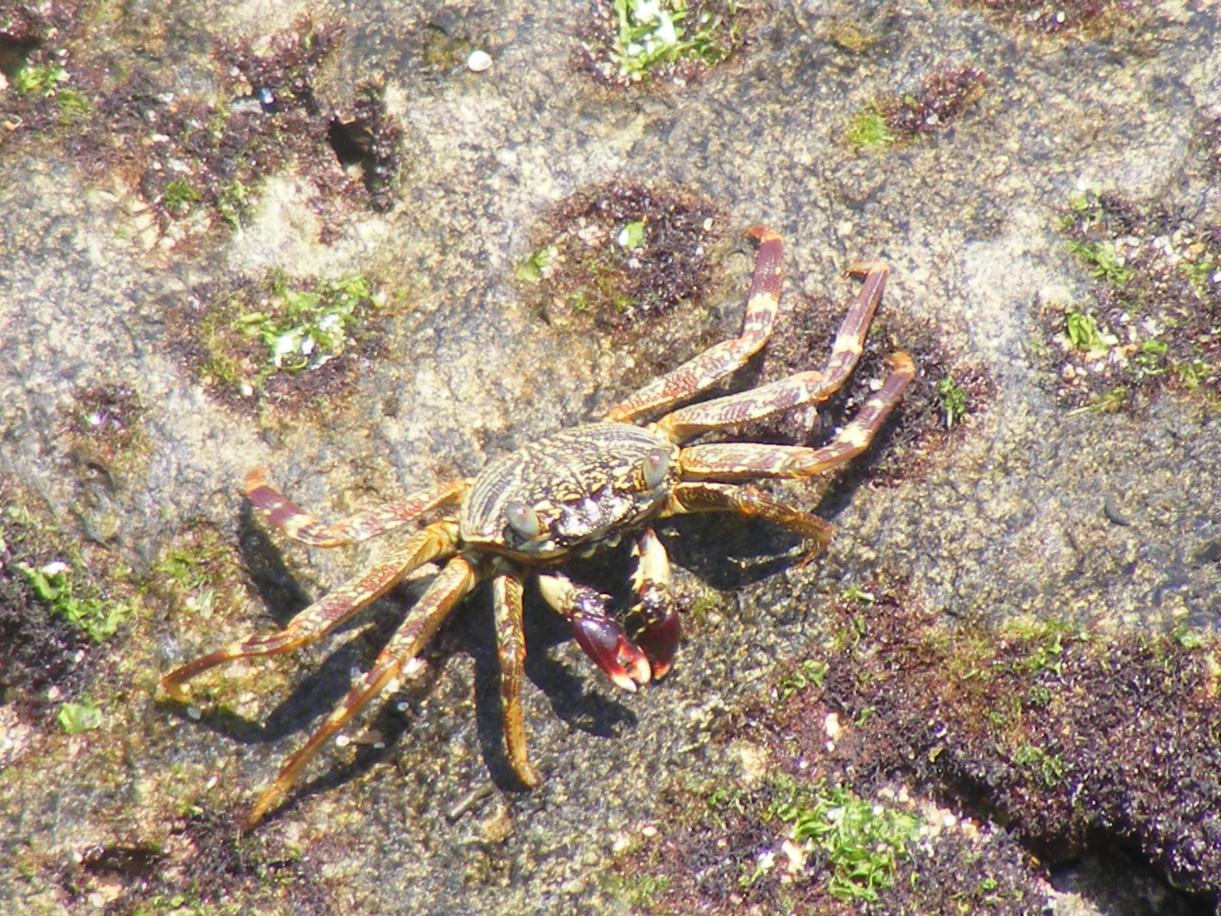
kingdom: Animalia
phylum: Arthropoda
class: Malacostraca
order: Decapoda
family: Grapsidae
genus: Grapsus
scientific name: Grapsus tenuicrustatus
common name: Natal lightfoot crab
